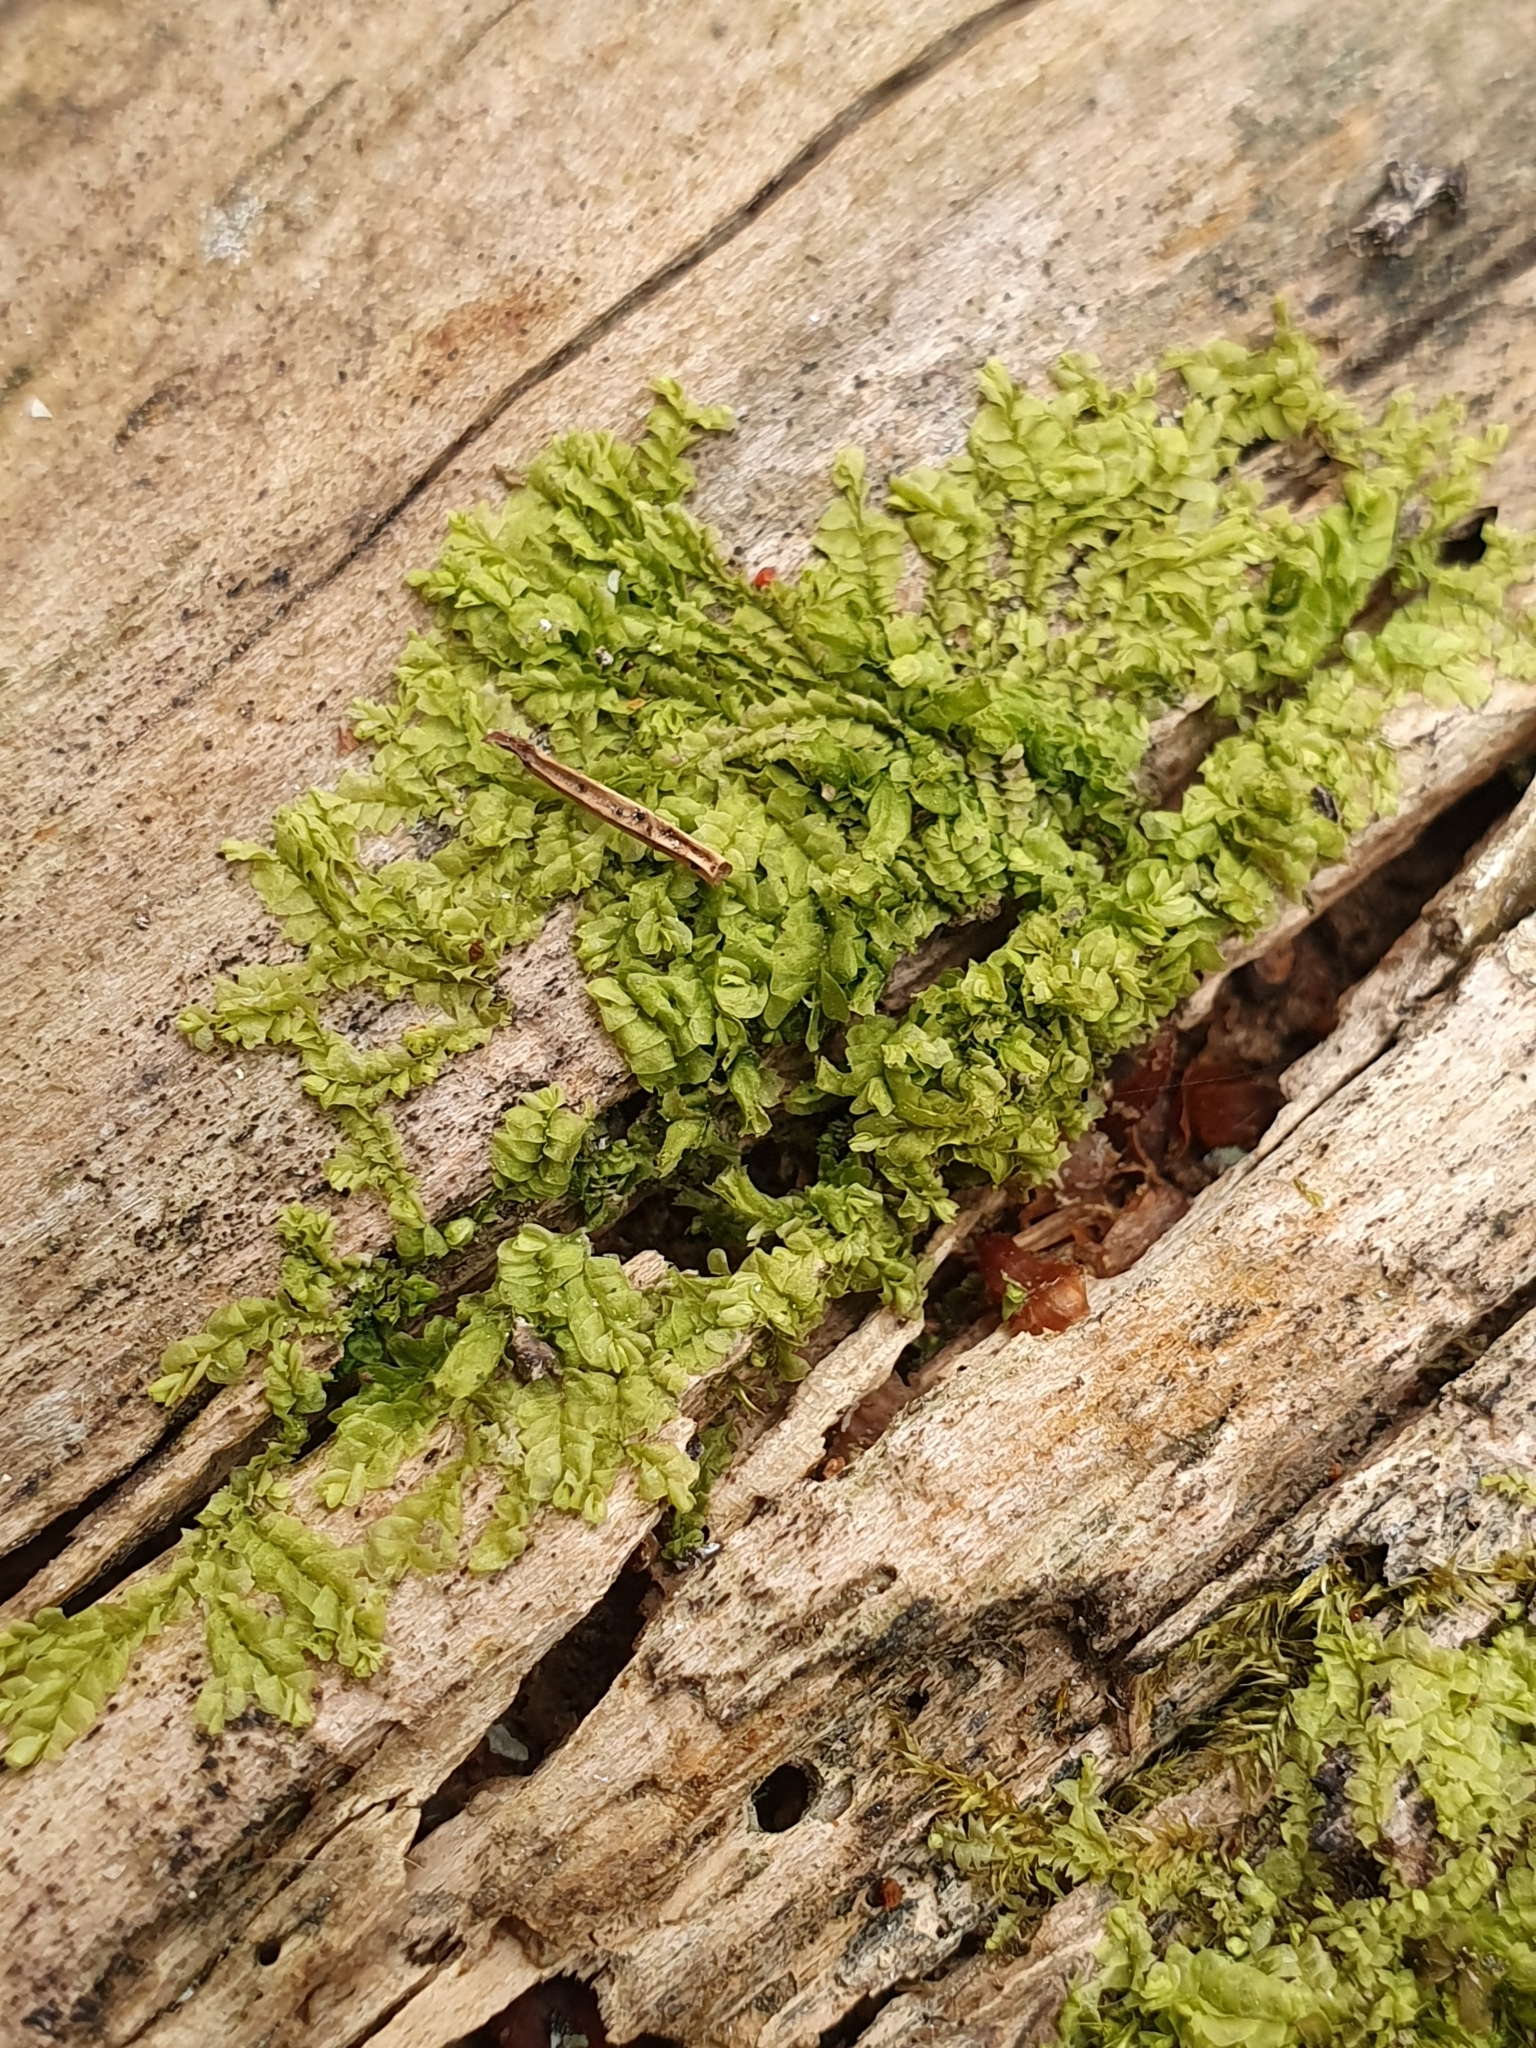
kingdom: Plantae
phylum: Marchantiophyta
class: Jungermanniopsida
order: Jungermanniales
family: Lophocoleaceae
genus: Lophocolea
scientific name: Lophocolea heterophylla
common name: Variable-leaved crestwort
